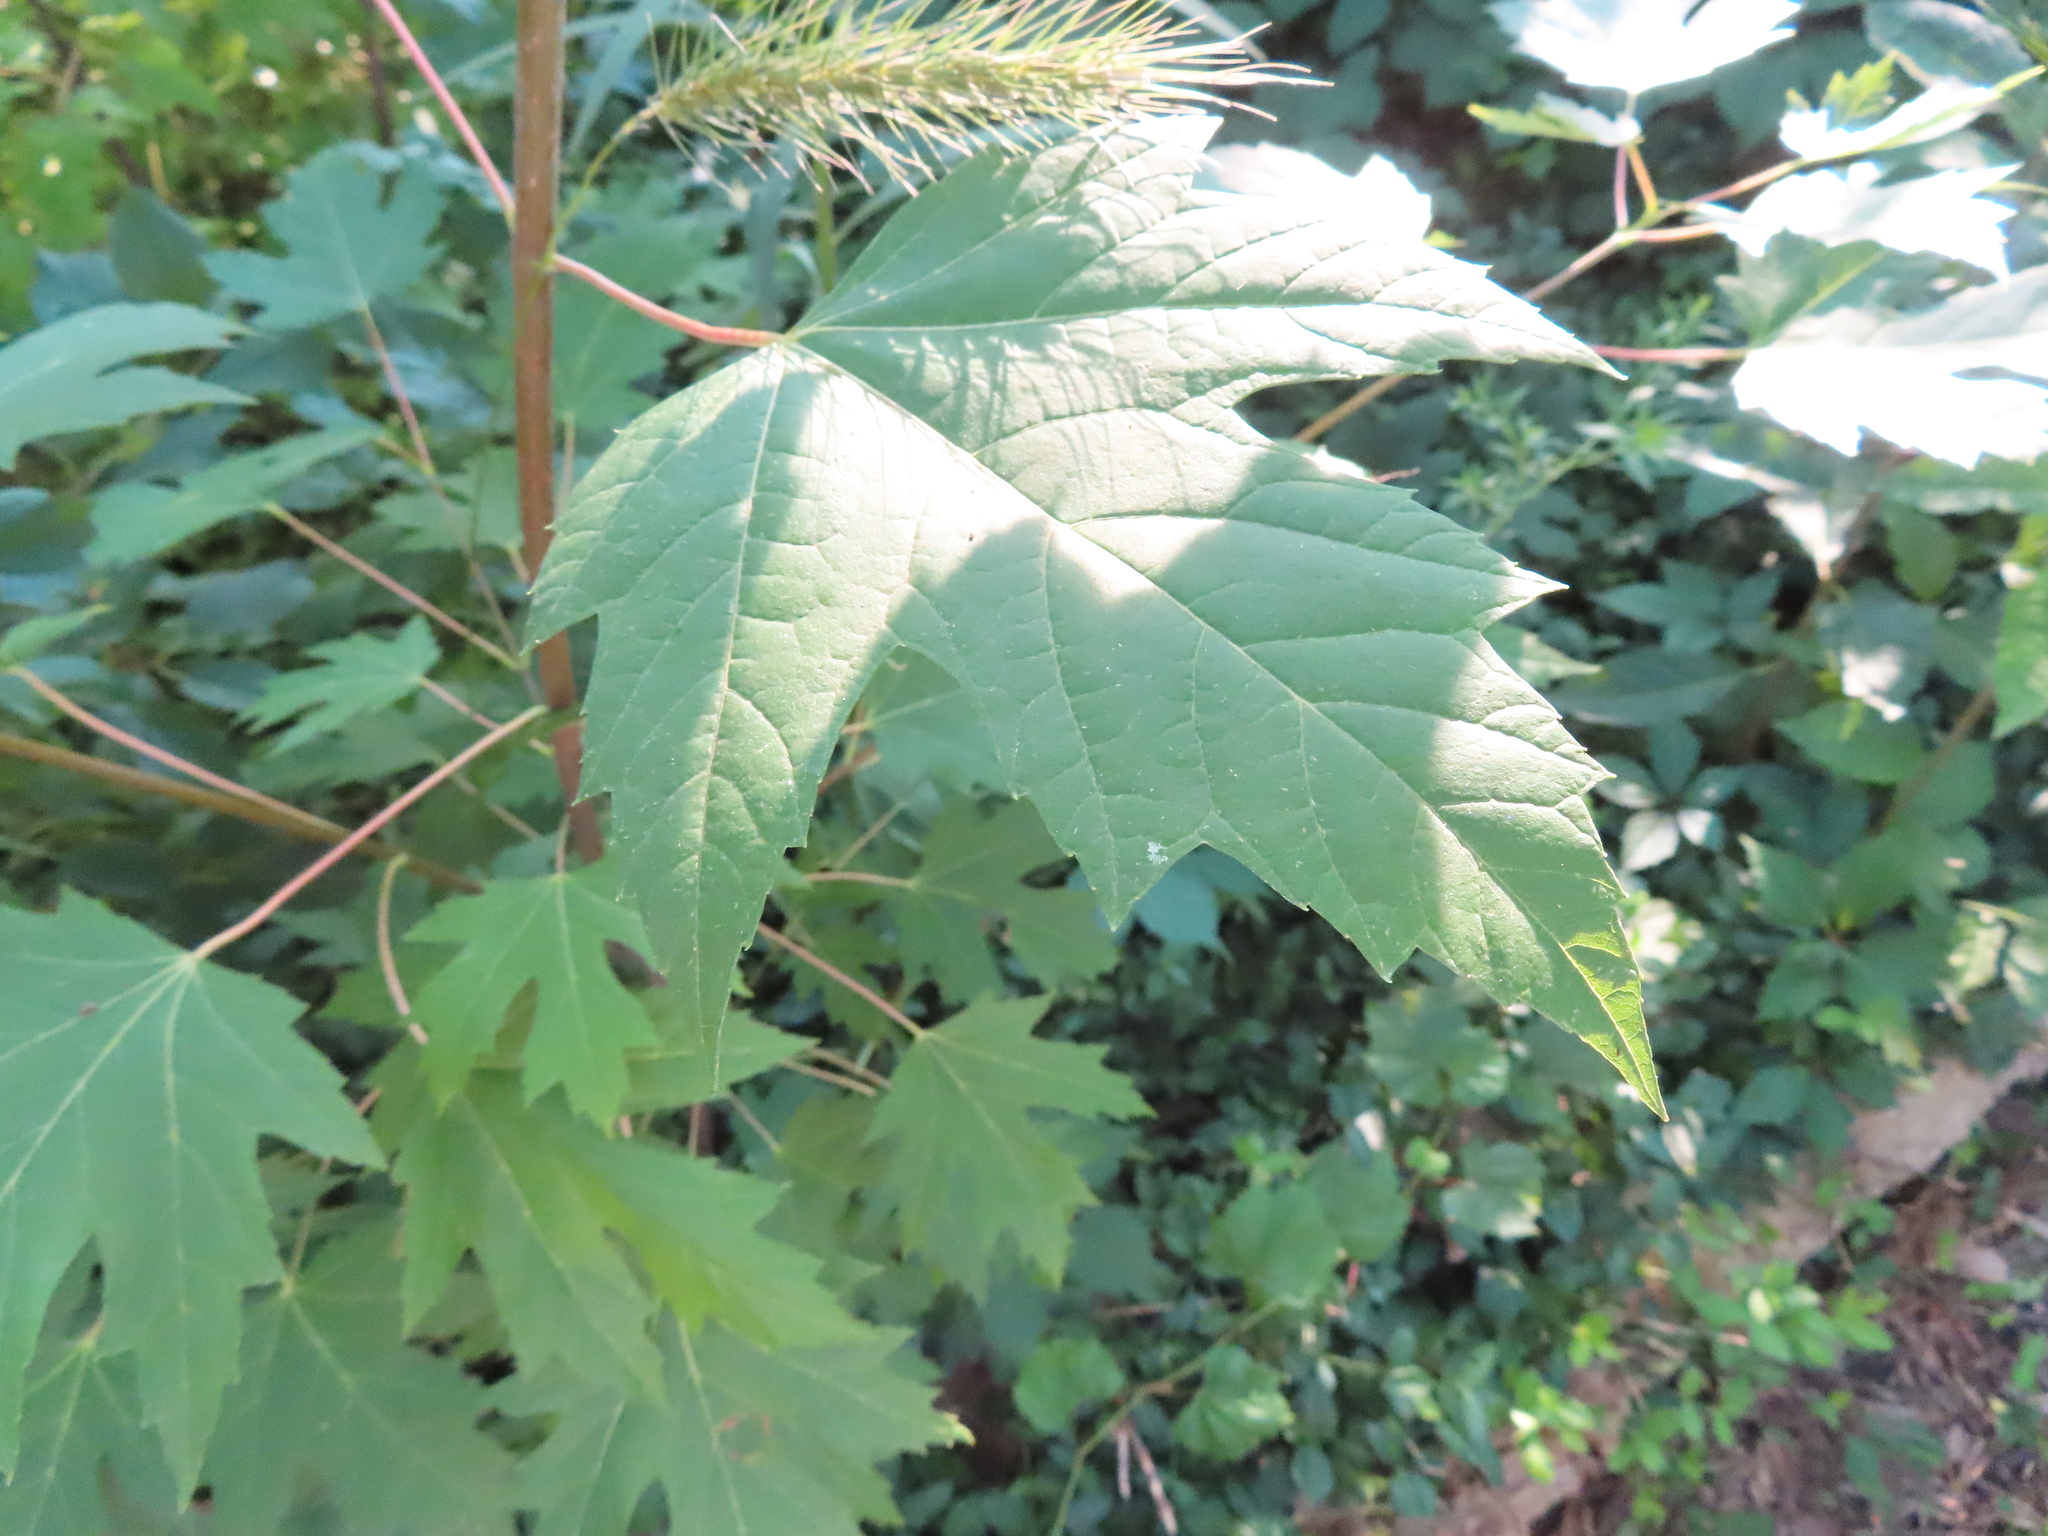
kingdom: Plantae
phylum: Tracheophyta
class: Magnoliopsida
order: Sapindales
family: Sapindaceae
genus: Acer
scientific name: Acer saccharinum
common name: Silver maple
